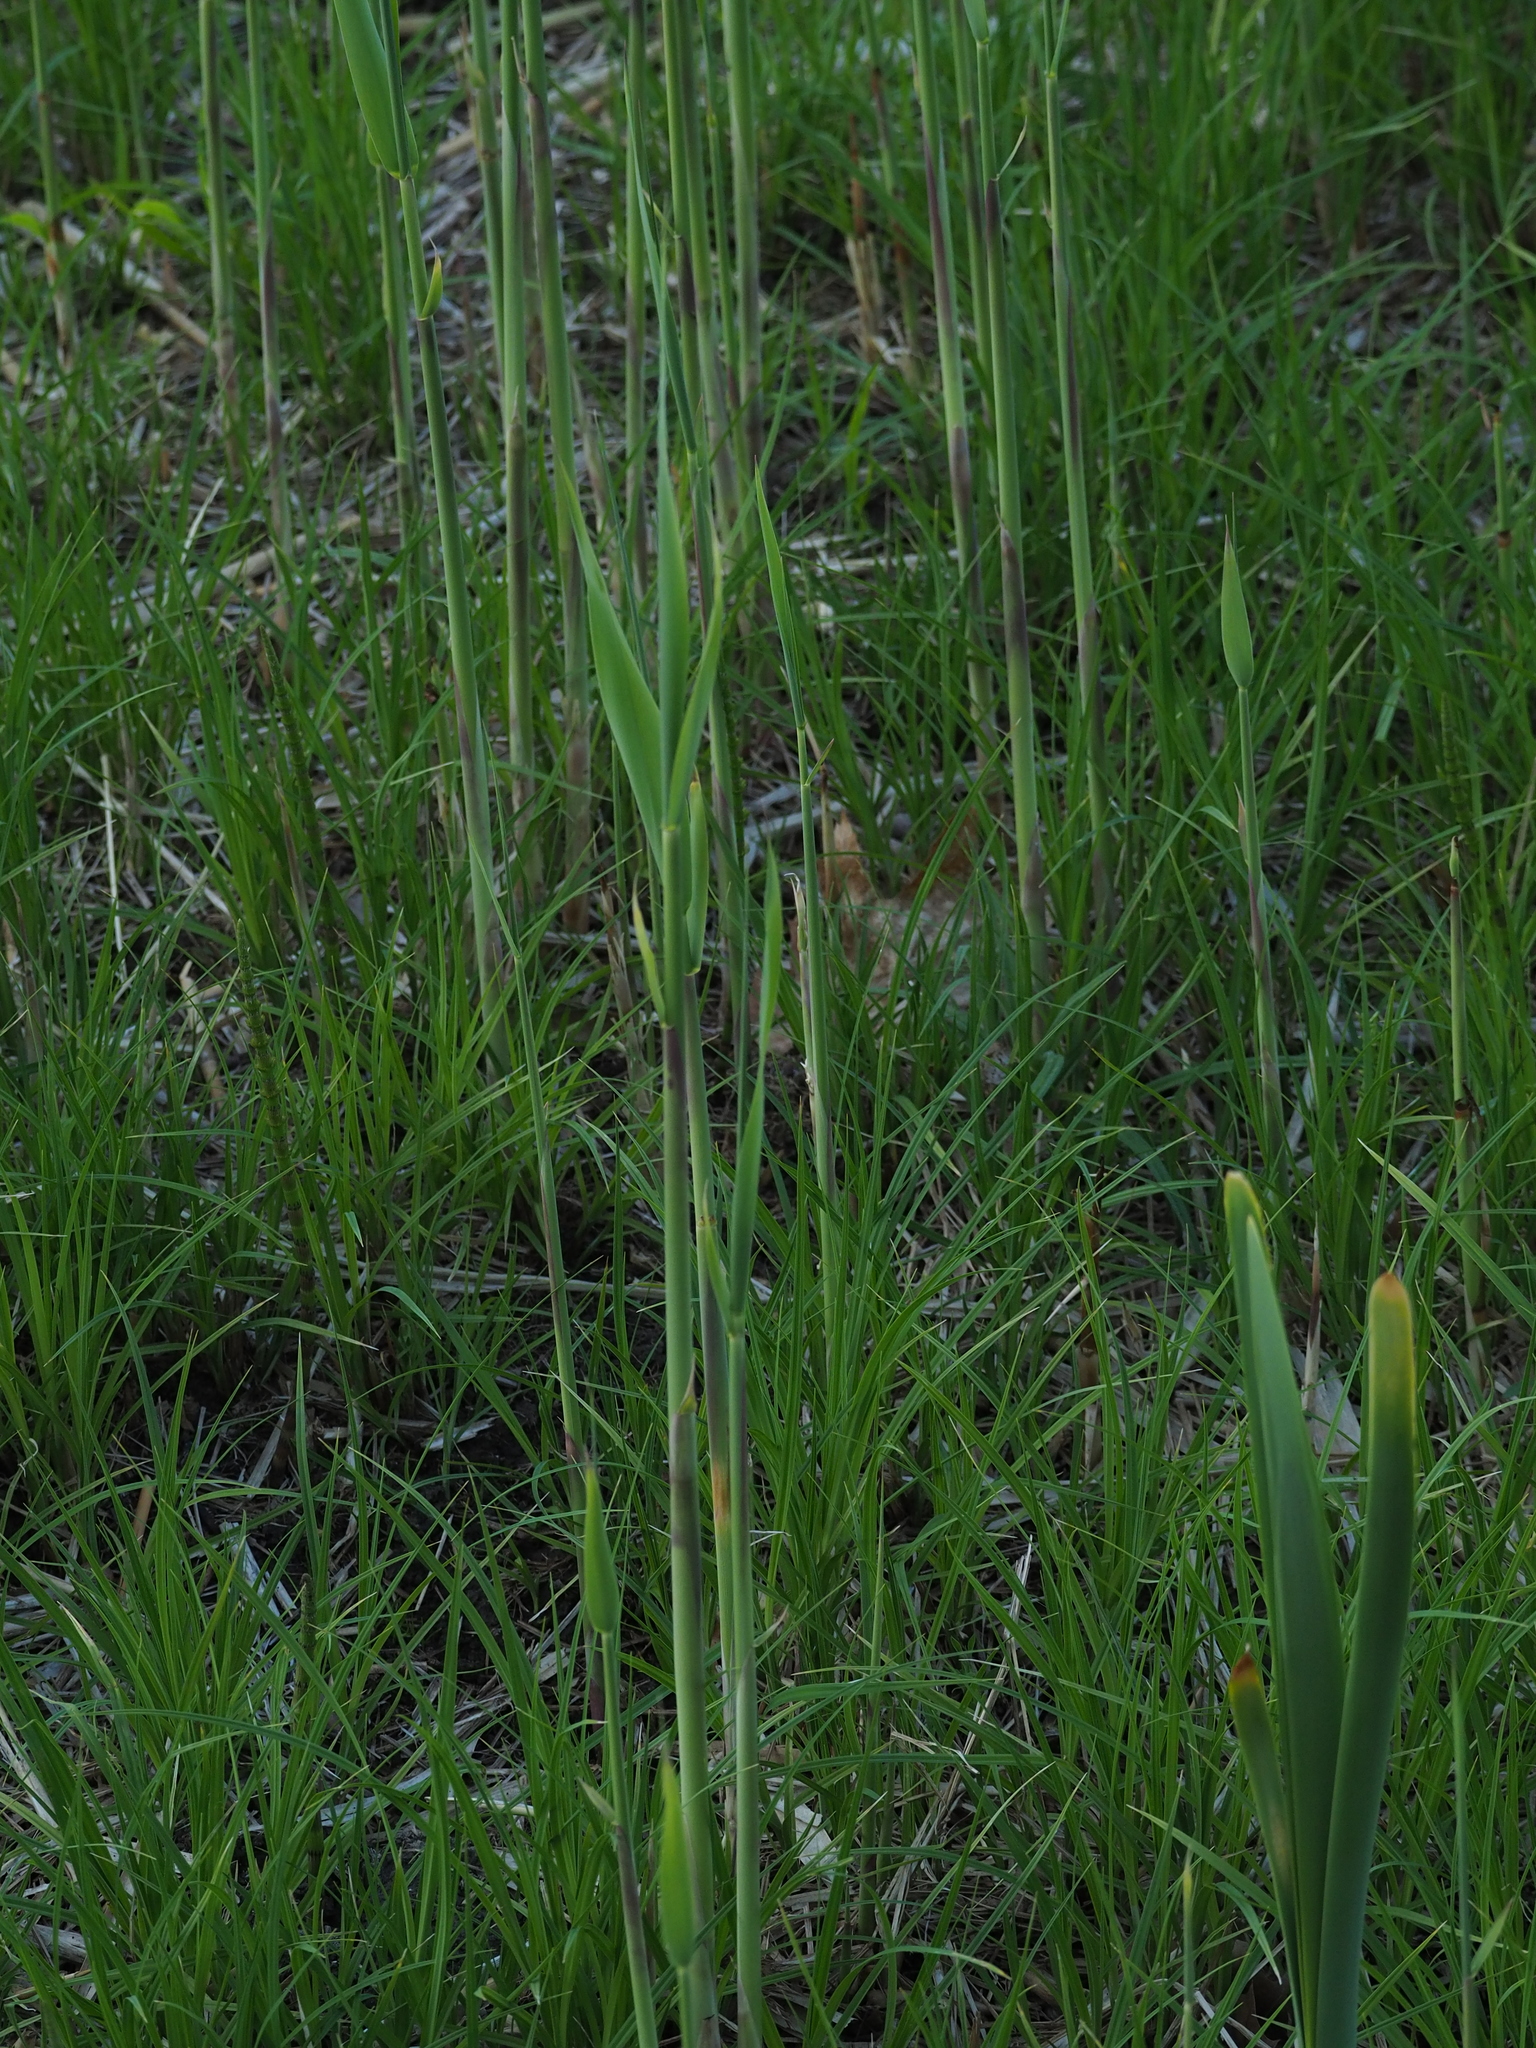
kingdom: Plantae
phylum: Tracheophyta
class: Liliopsida
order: Poales
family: Poaceae
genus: Phragmites
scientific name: Phragmites australis
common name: Common reed
